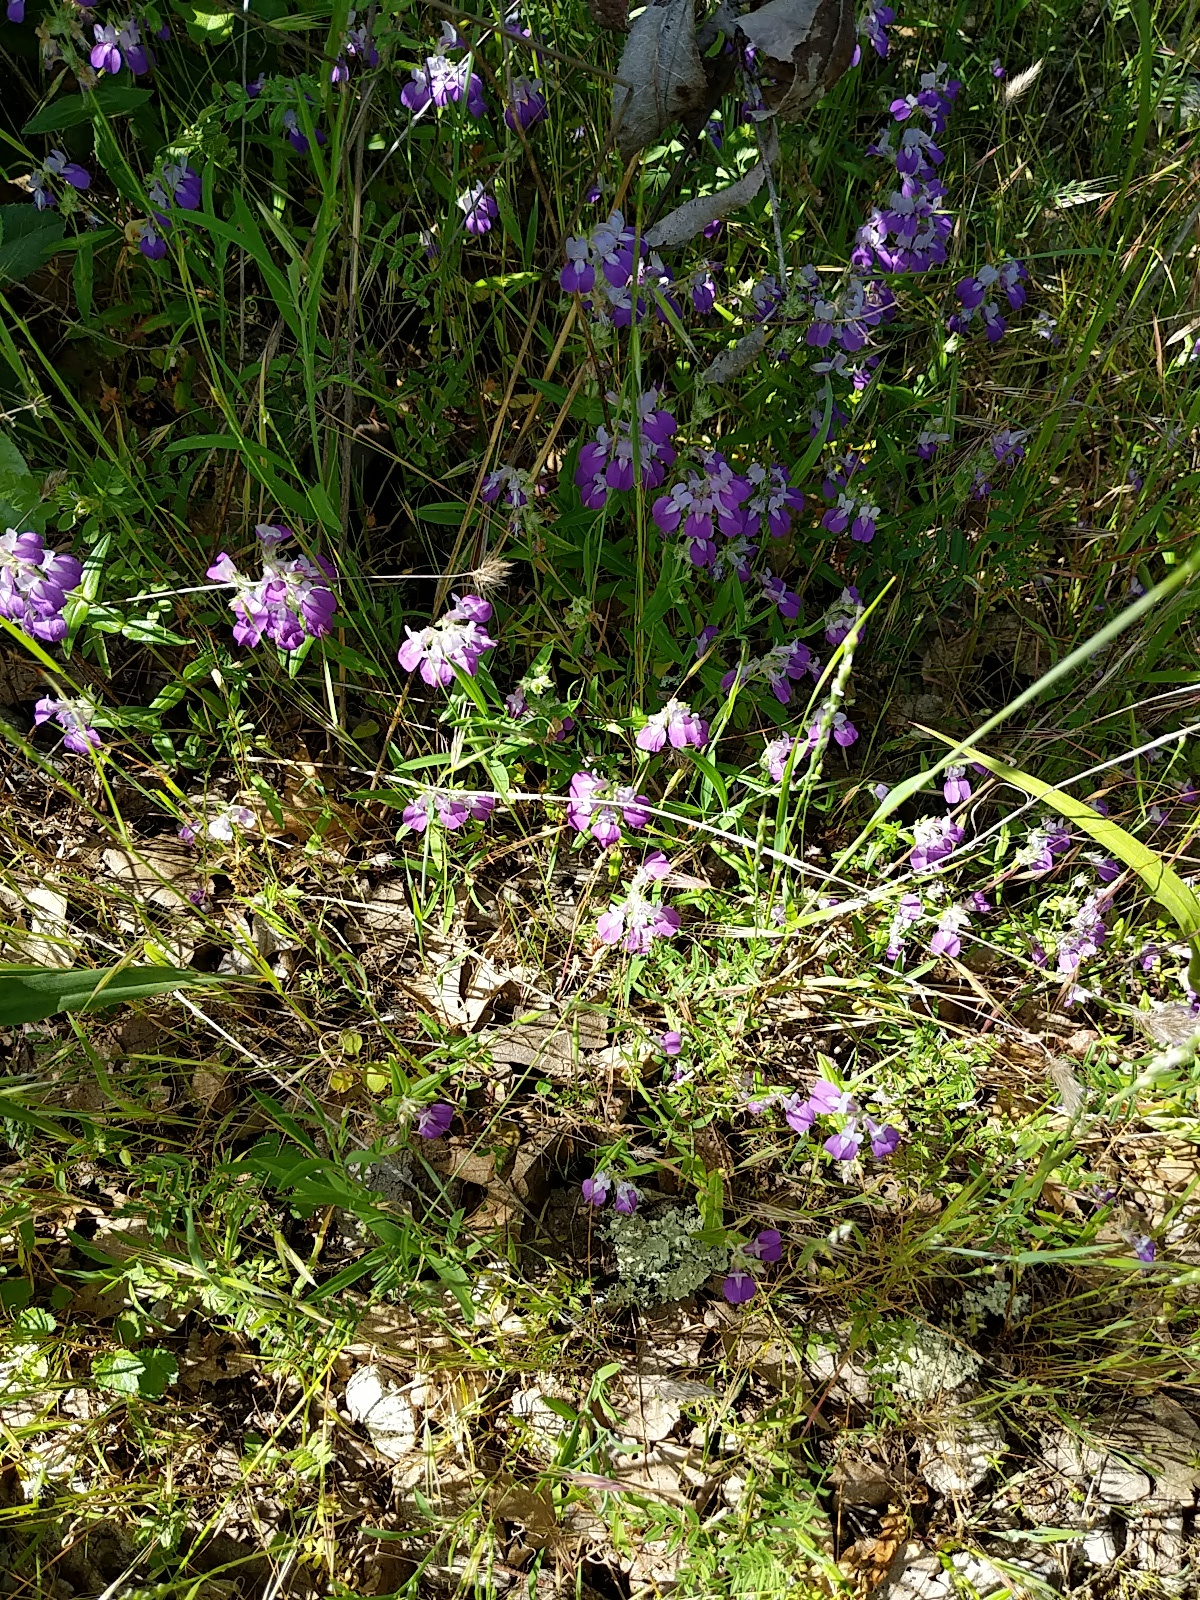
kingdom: Plantae
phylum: Tracheophyta
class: Magnoliopsida
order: Lamiales
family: Plantaginaceae
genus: Collinsia
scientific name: Collinsia heterophylla
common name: Chinese-houses
